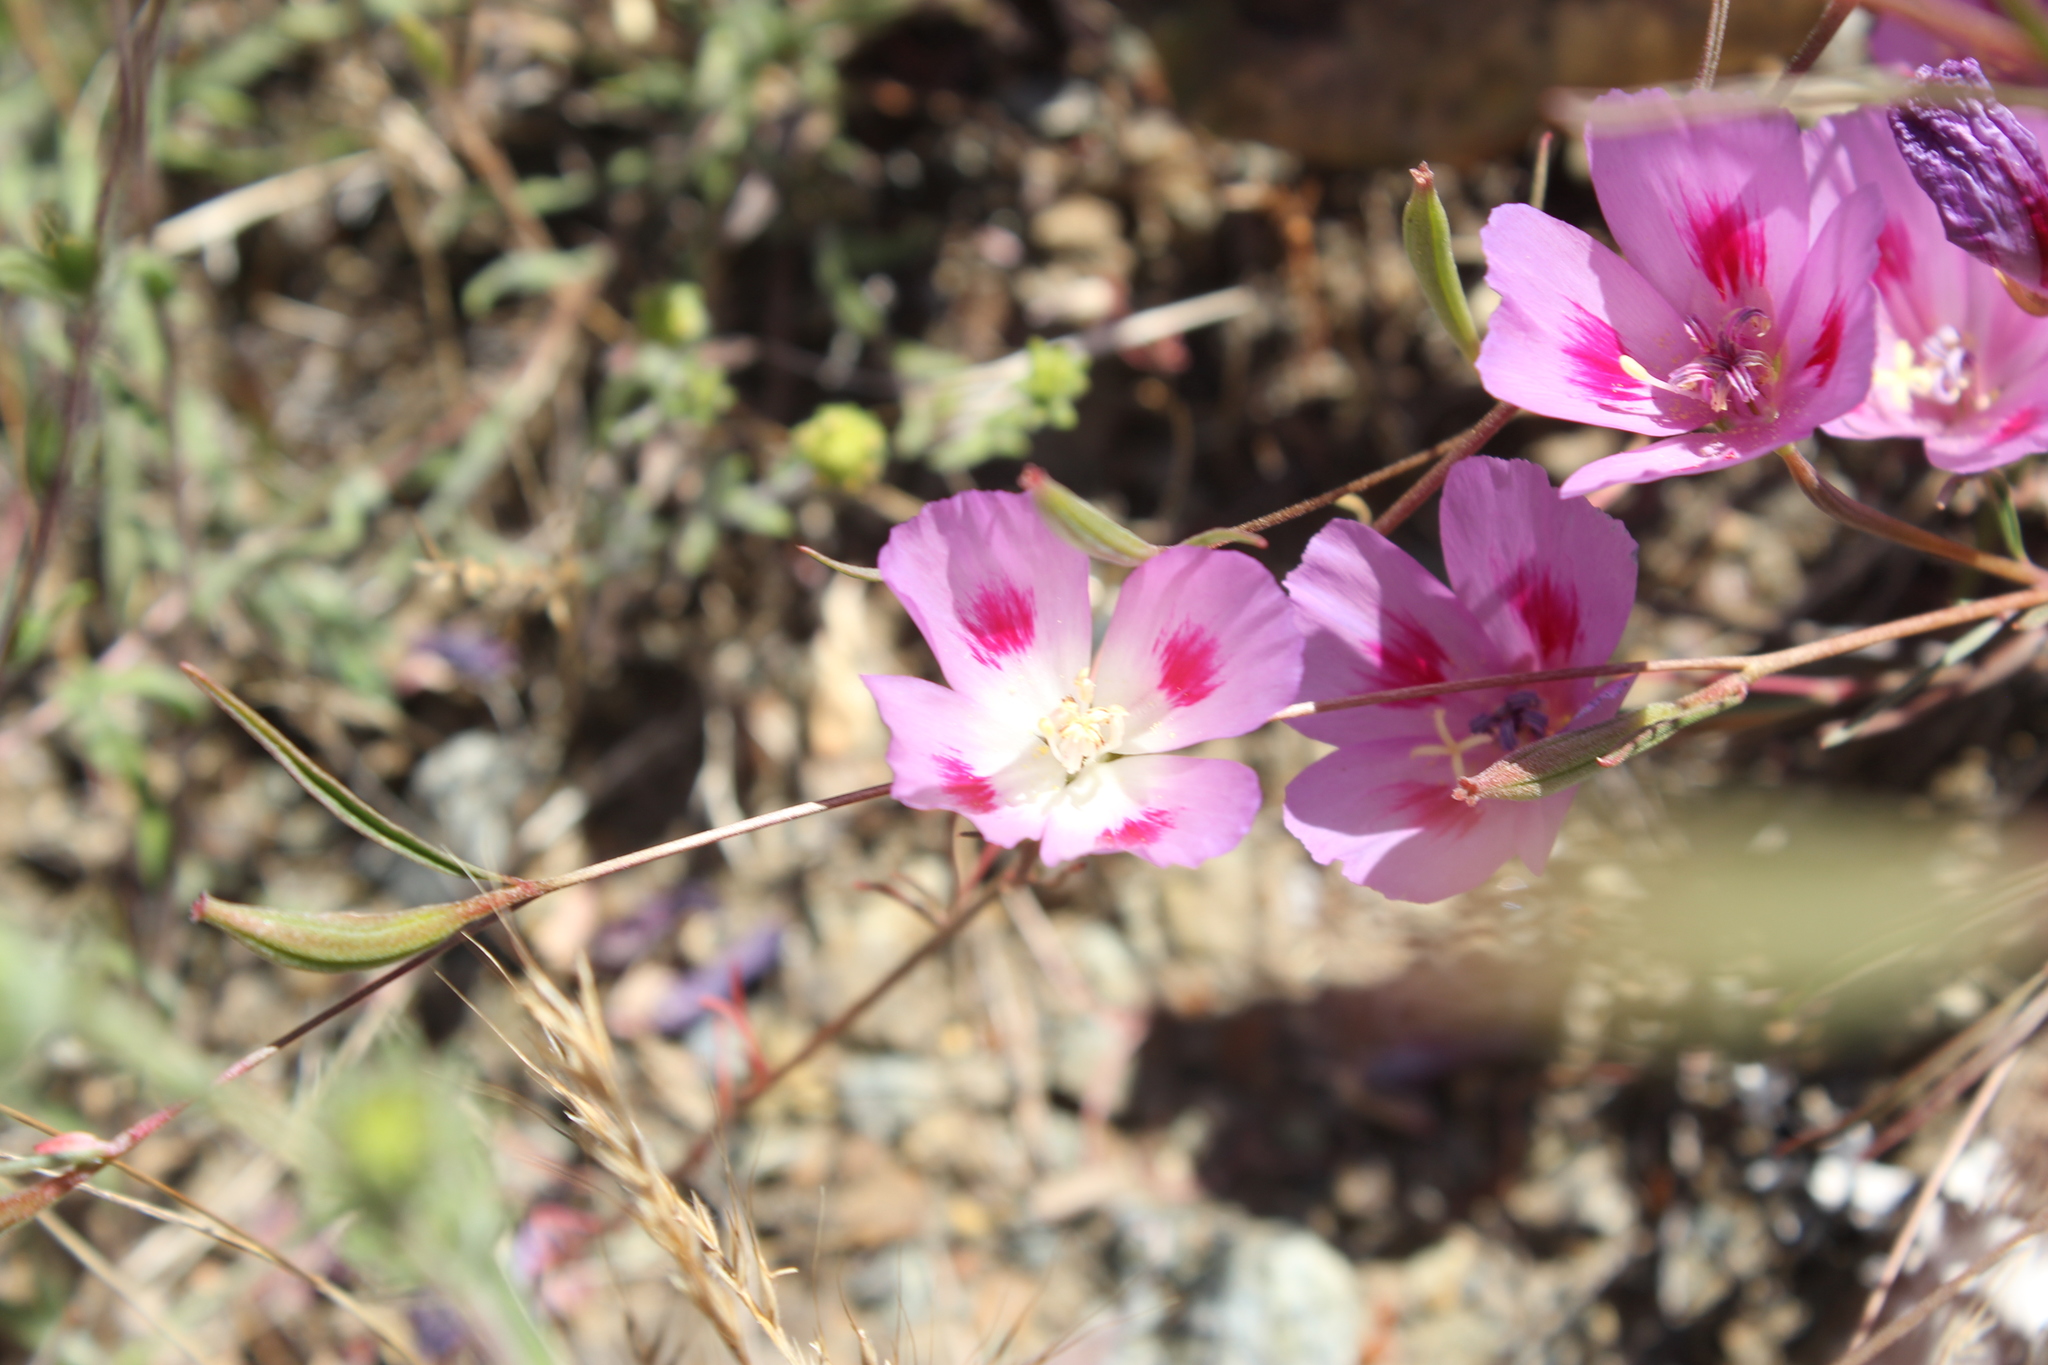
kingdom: Plantae
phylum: Tracheophyta
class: Magnoliopsida
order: Myrtales
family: Onagraceae
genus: Clarkia
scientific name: Clarkia amoena
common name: Godetia
